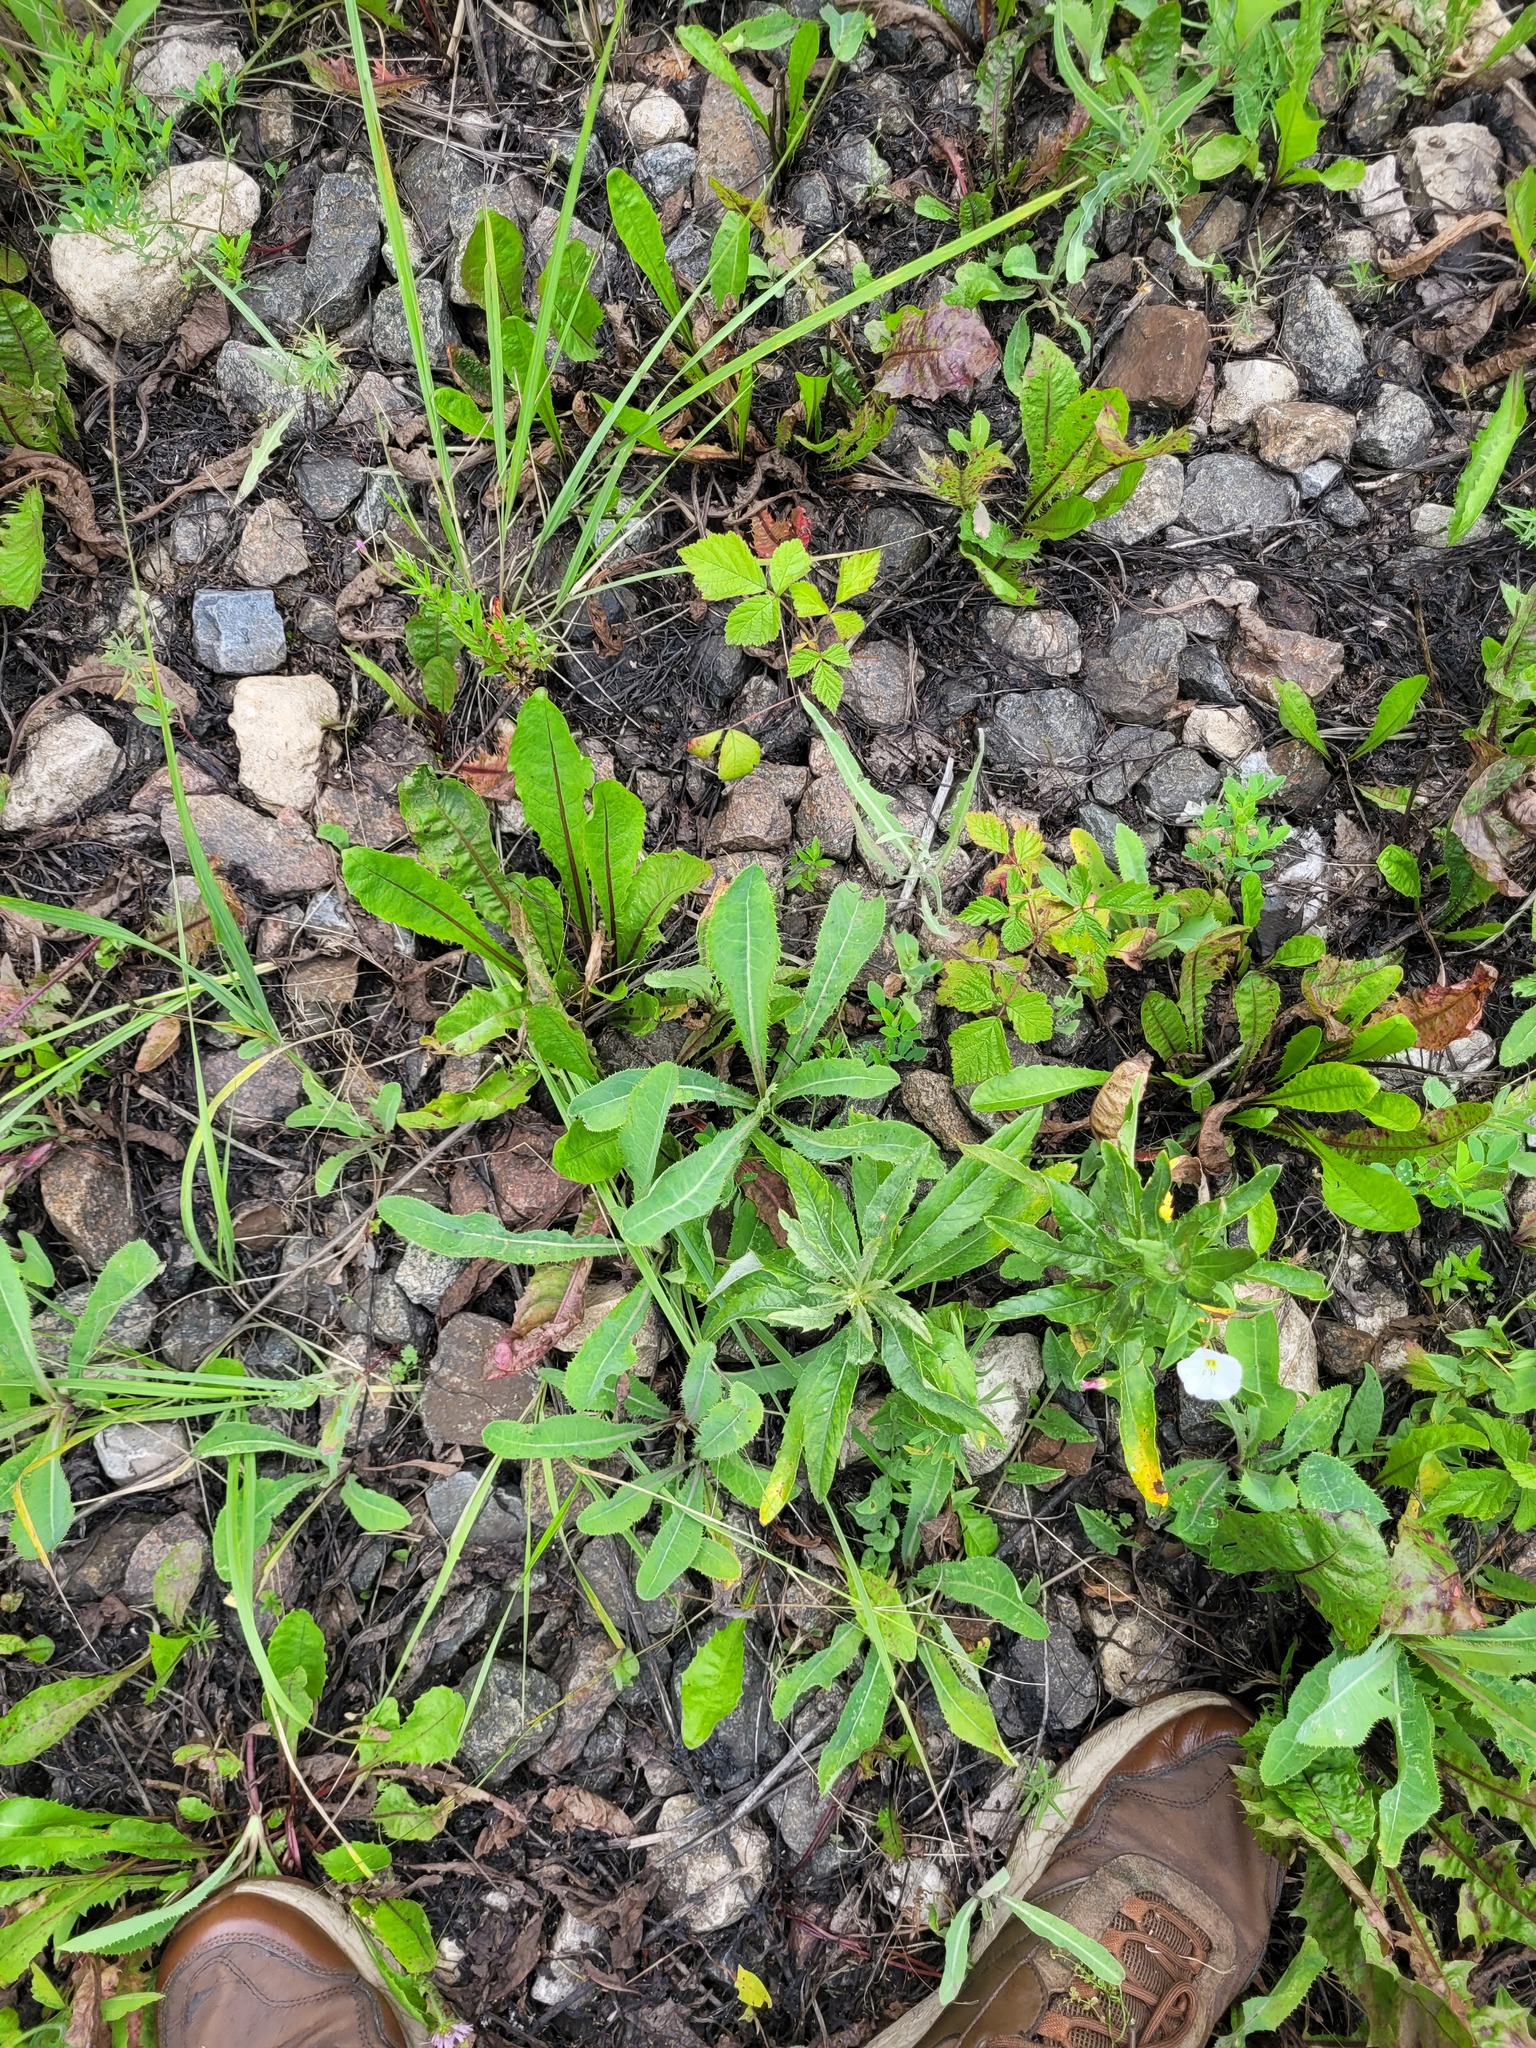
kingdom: Plantae
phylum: Tracheophyta
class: Magnoliopsida
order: Asterales
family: Asteraceae
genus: Sonchus
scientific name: Sonchus arvensis
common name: Perennial sow-thistle
